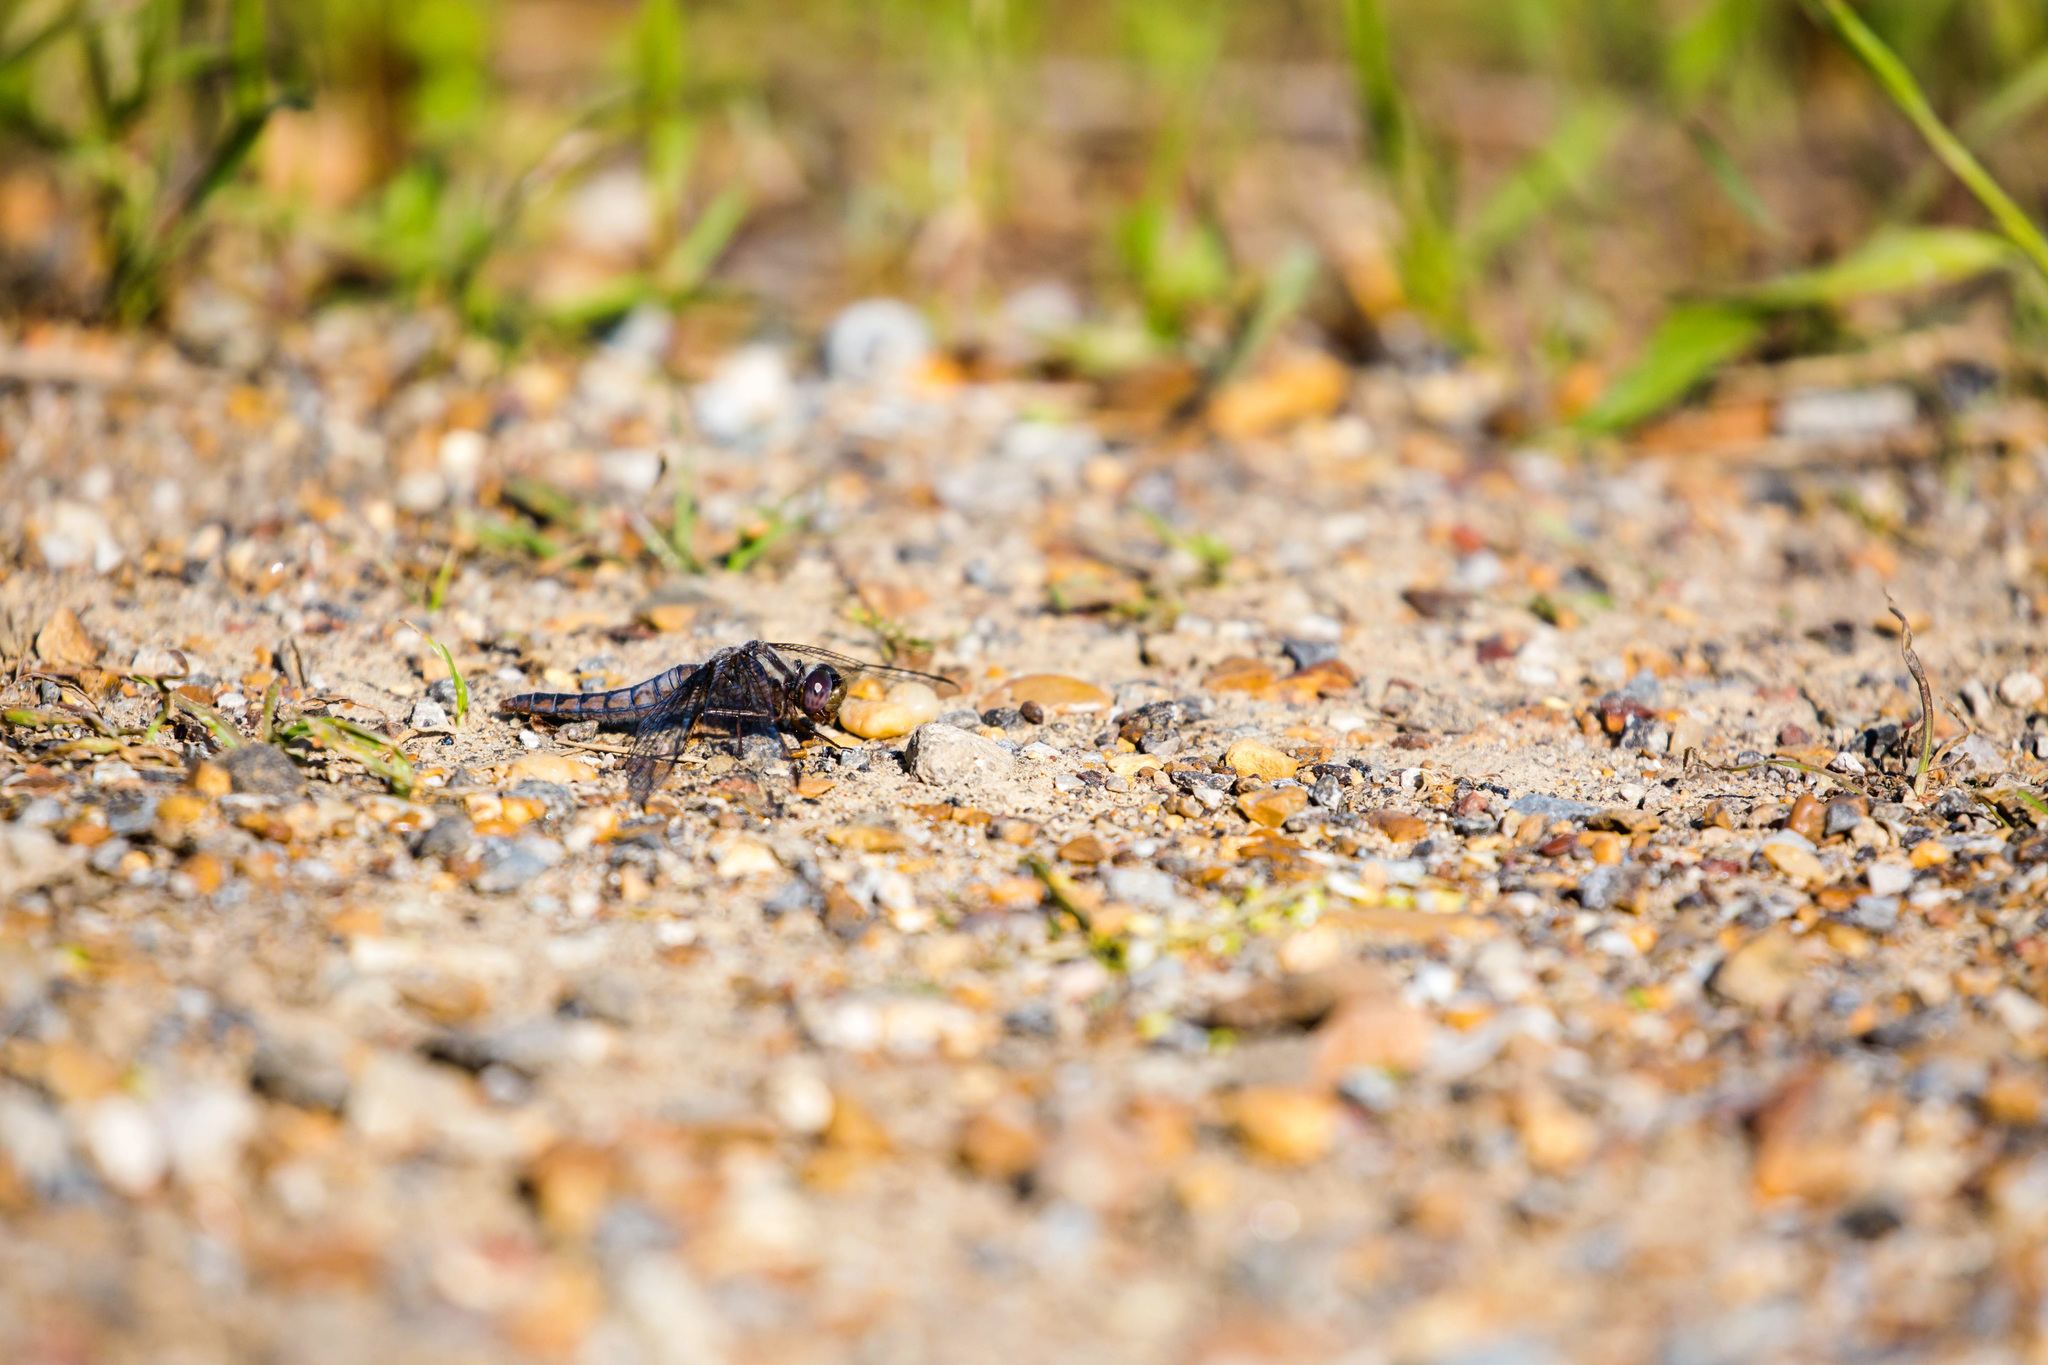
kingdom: Animalia
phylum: Arthropoda
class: Insecta
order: Odonata
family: Libellulidae
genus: Ladona
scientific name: Ladona deplanata
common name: Blue corporal
